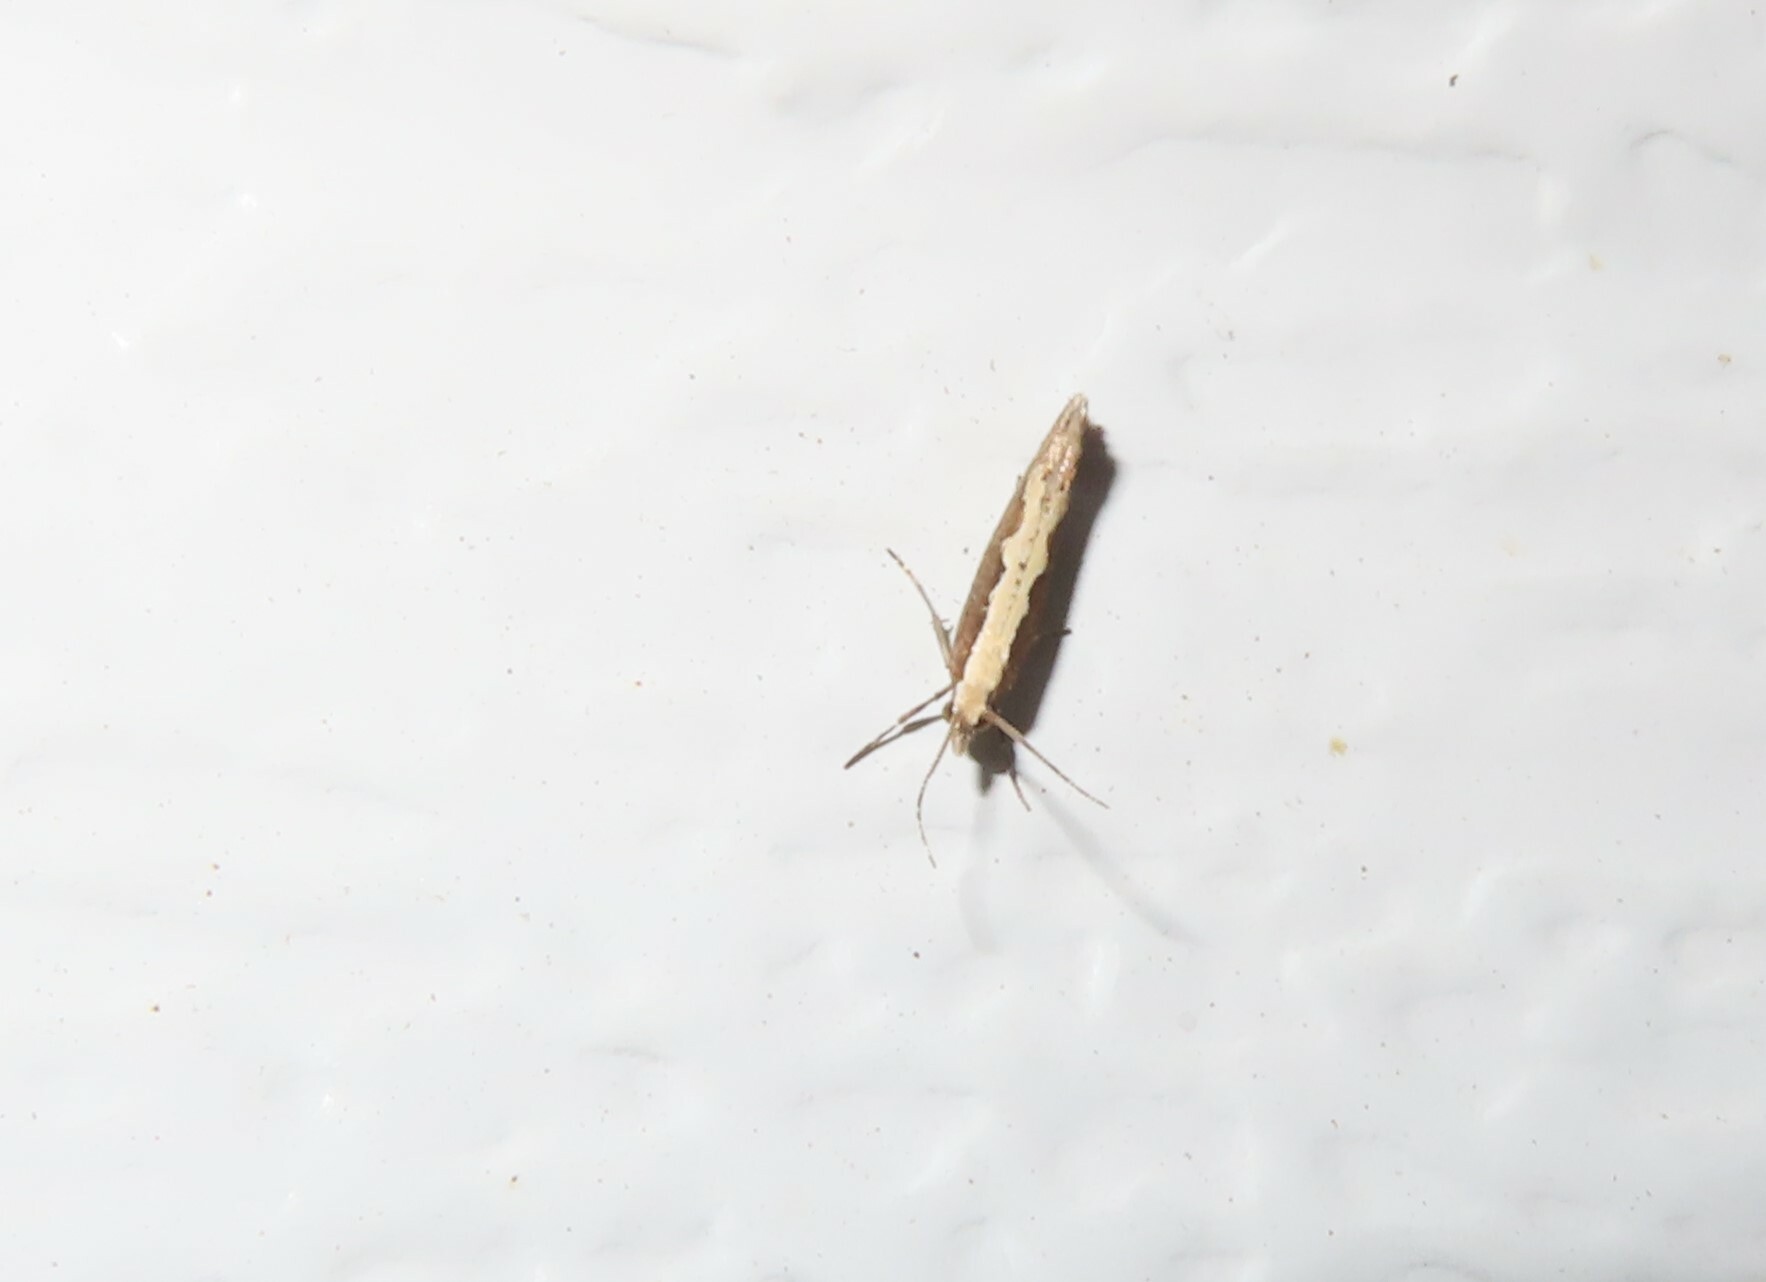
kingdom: Animalia
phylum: Arthropoda
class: Insecta
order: Lepidoptera
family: Plutellidae
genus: Plutella
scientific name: Plutella xylostella
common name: Diamond-back moth
